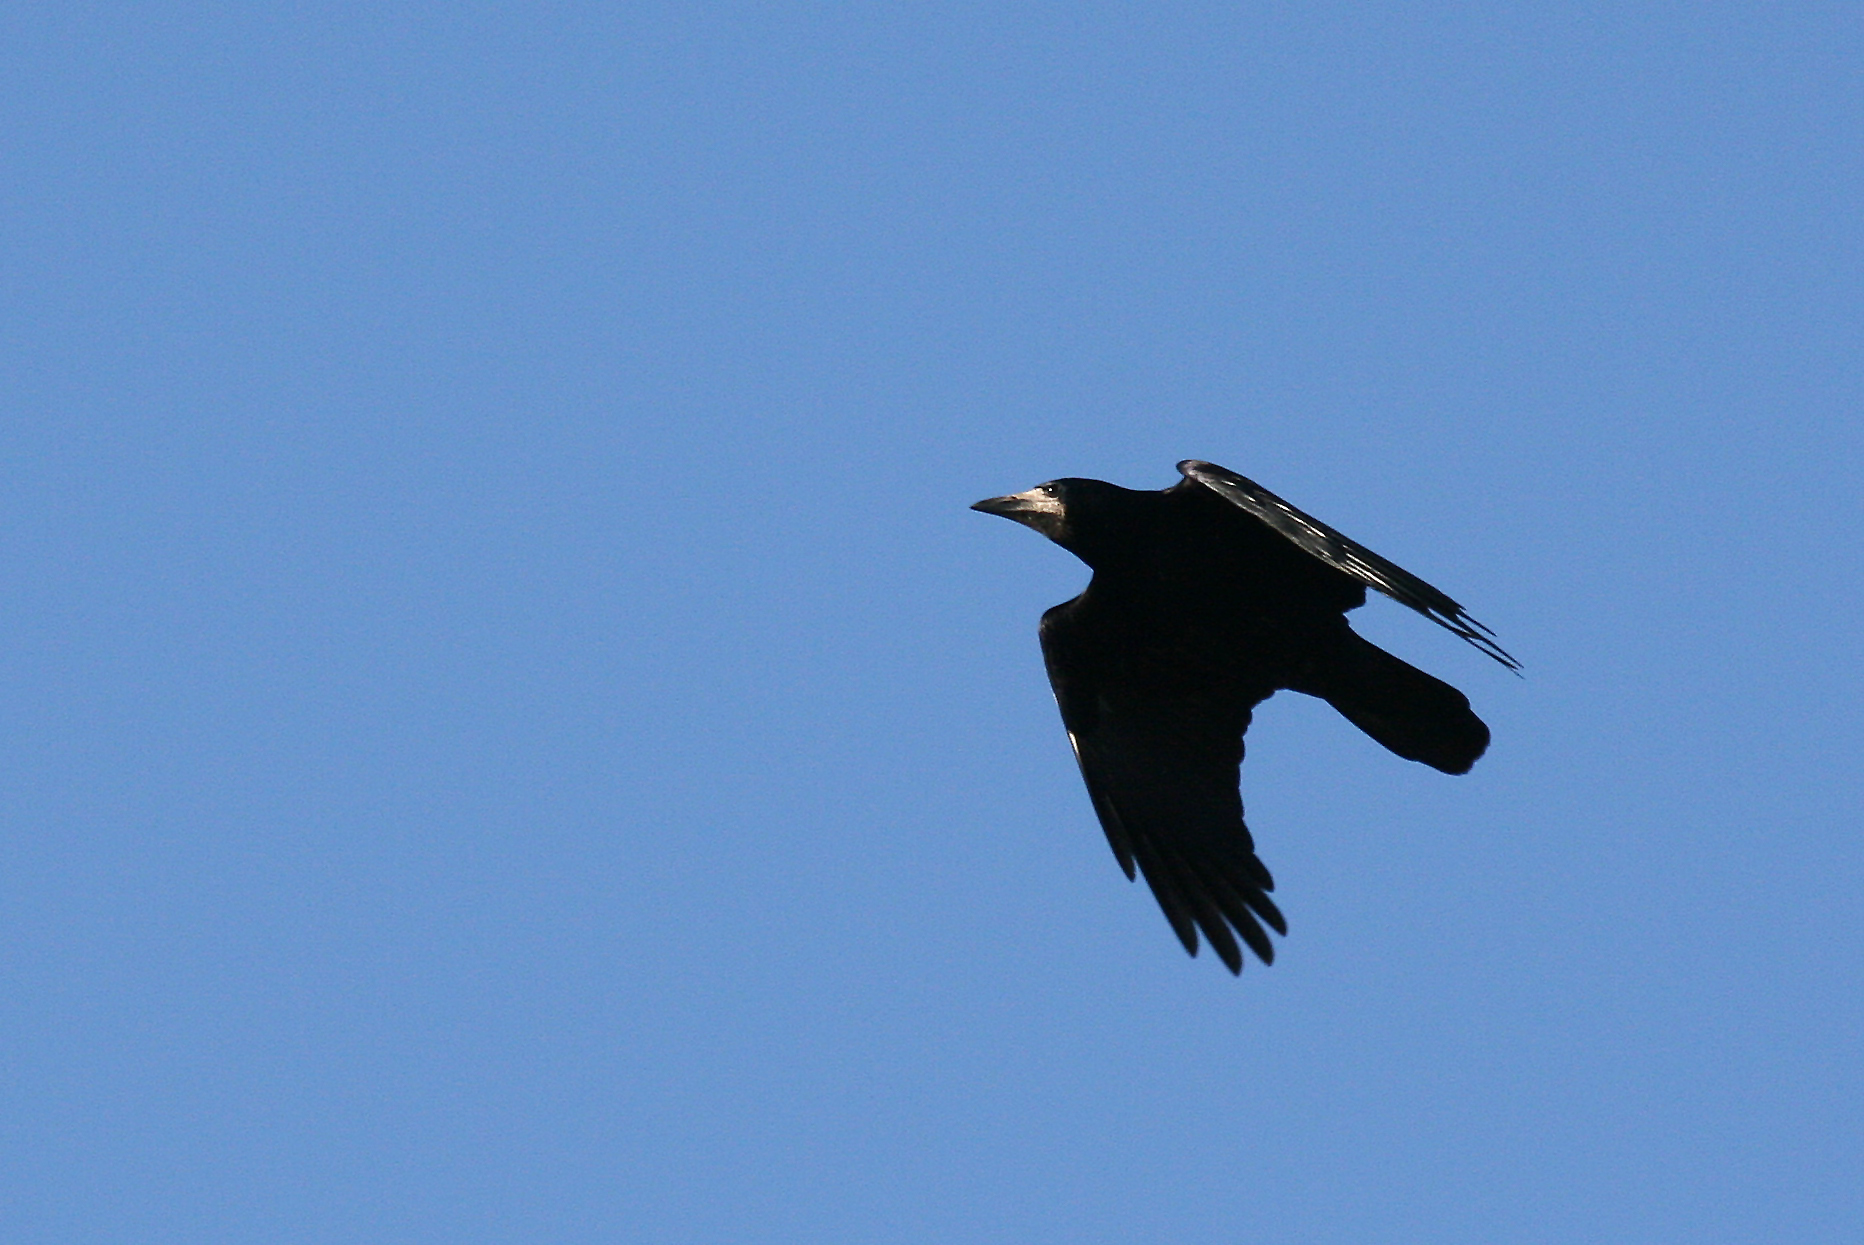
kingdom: Animalia
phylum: Chordata
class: Aves
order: Passeriformes
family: Corvidae
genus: Corvus
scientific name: Corvus frugilegus
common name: Rook
